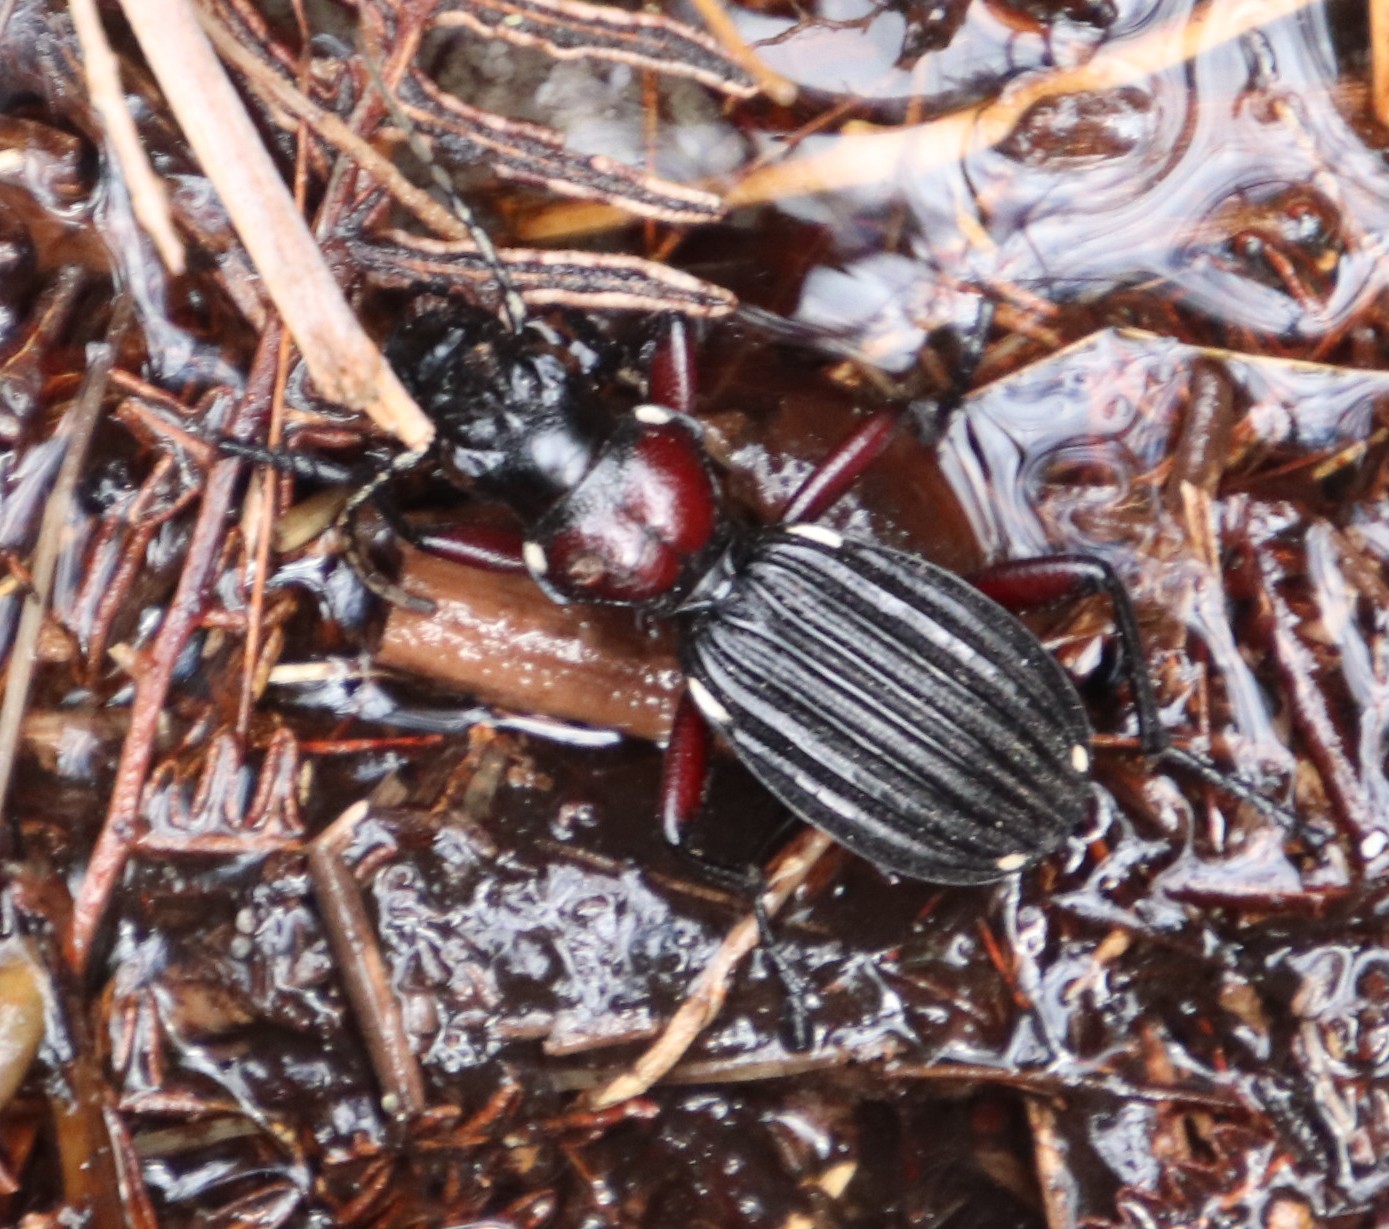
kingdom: Animalia
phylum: Arthropoda
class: Insecta
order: Coleoptera
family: Carabidae
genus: Anthia
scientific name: Anthia decemguttata
